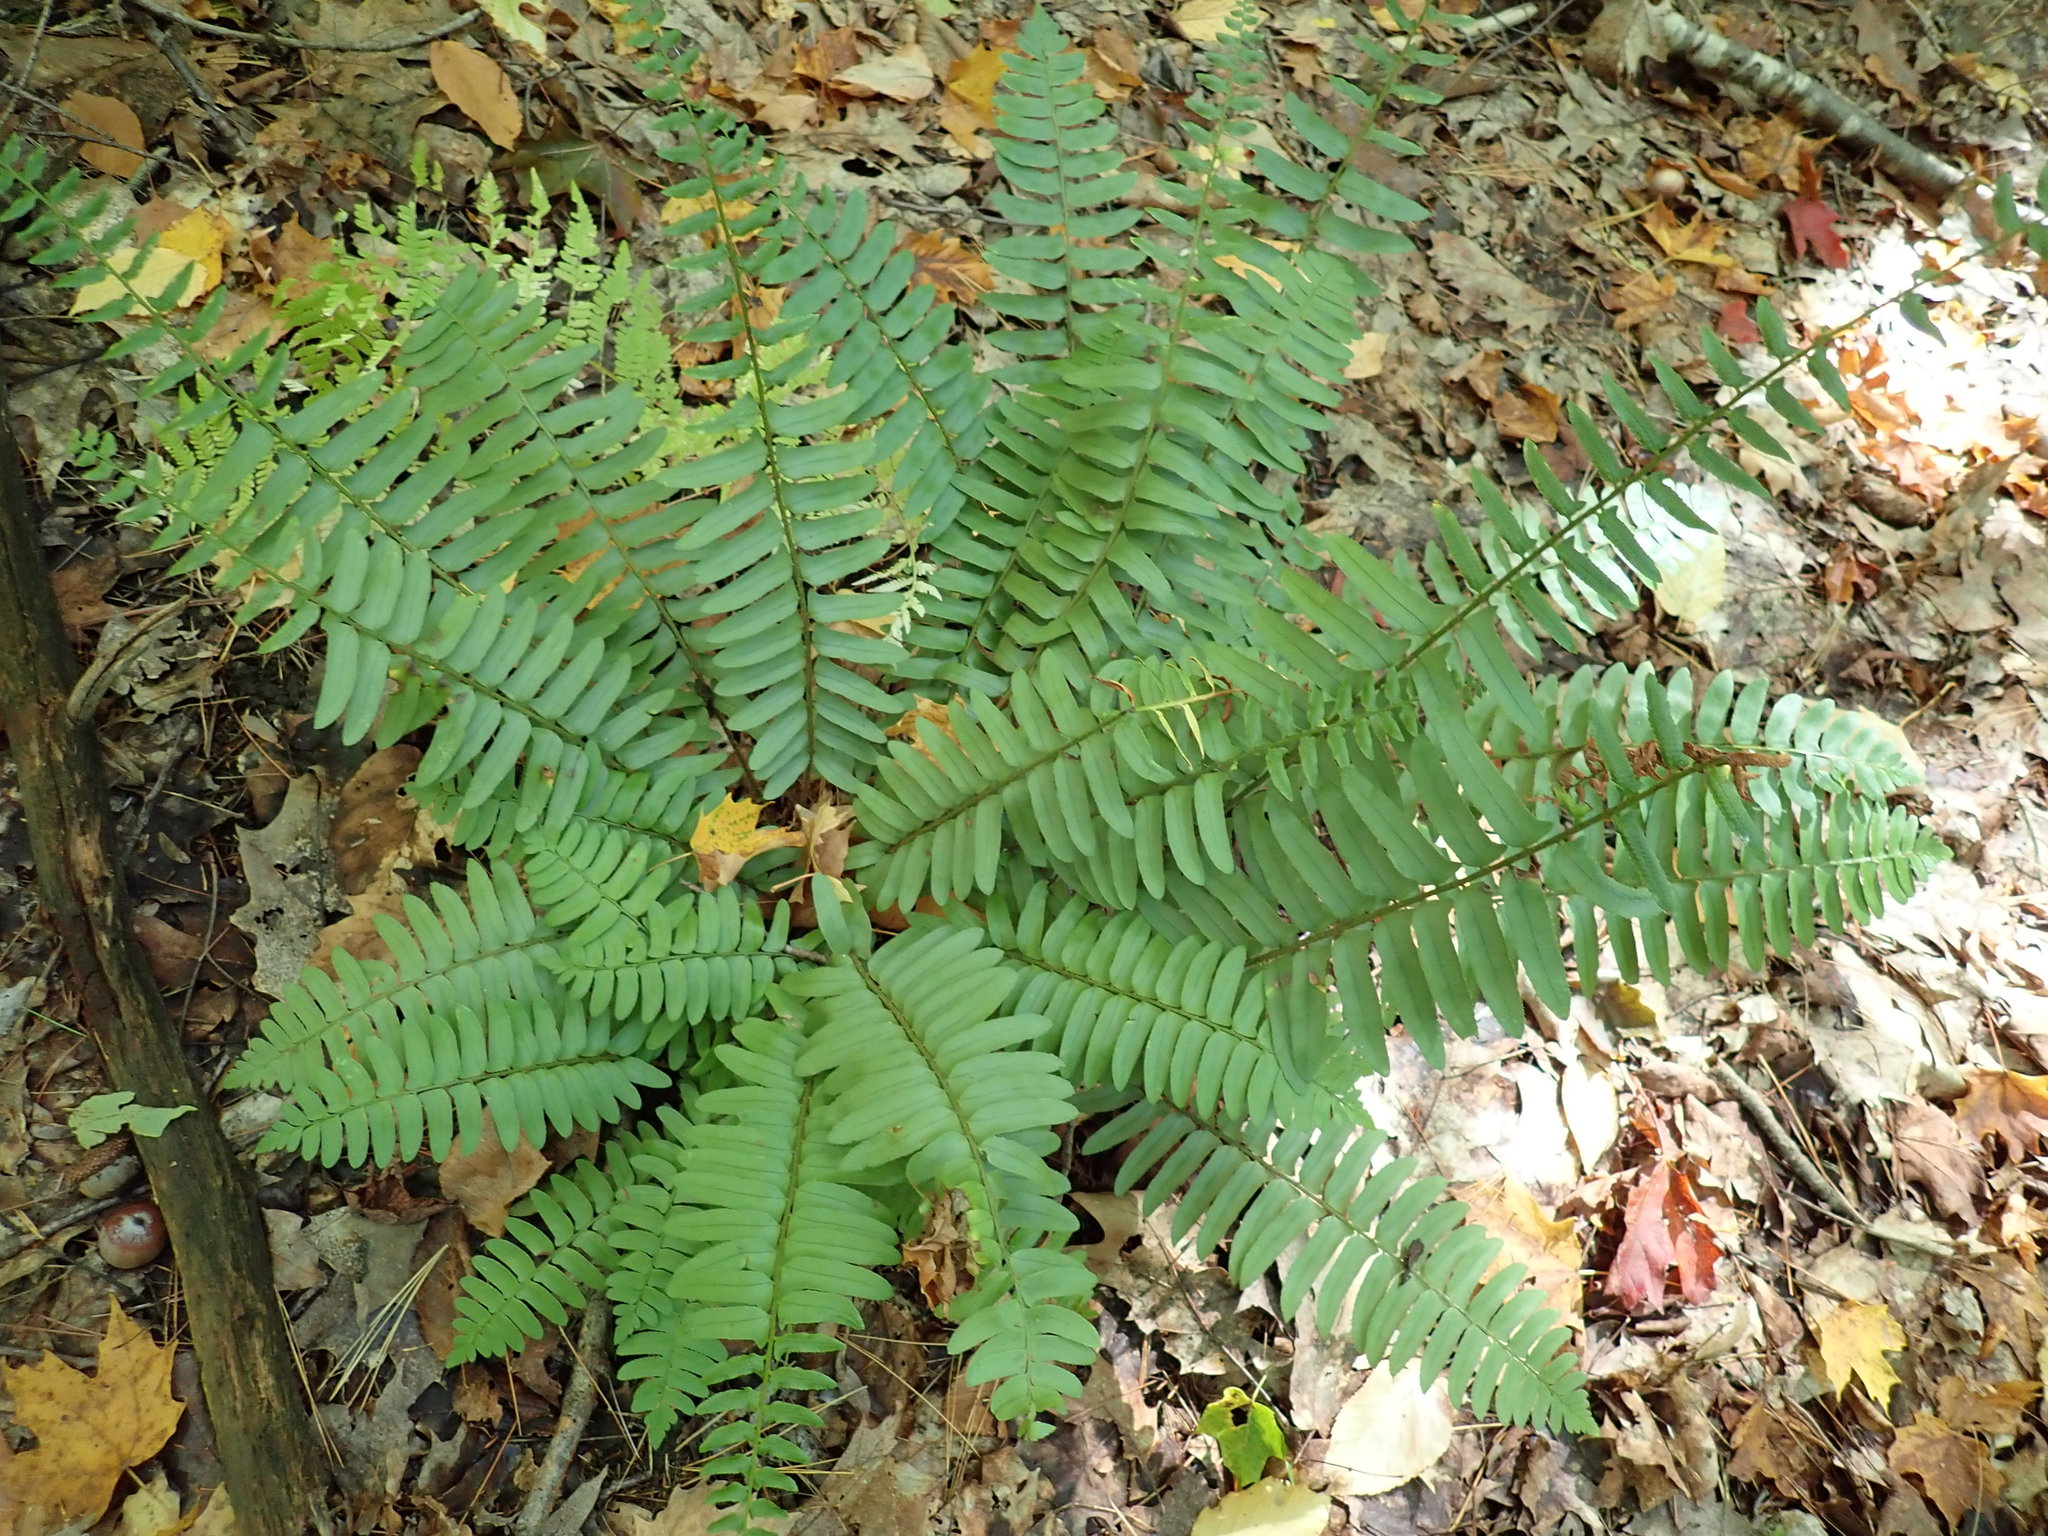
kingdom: Plantae
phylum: Tracheophyta
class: Polypodiopsida
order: Polypodiales
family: Dryopteridaceae
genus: Polystichum
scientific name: Polystichum acrostichoides
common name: Christmas fern
